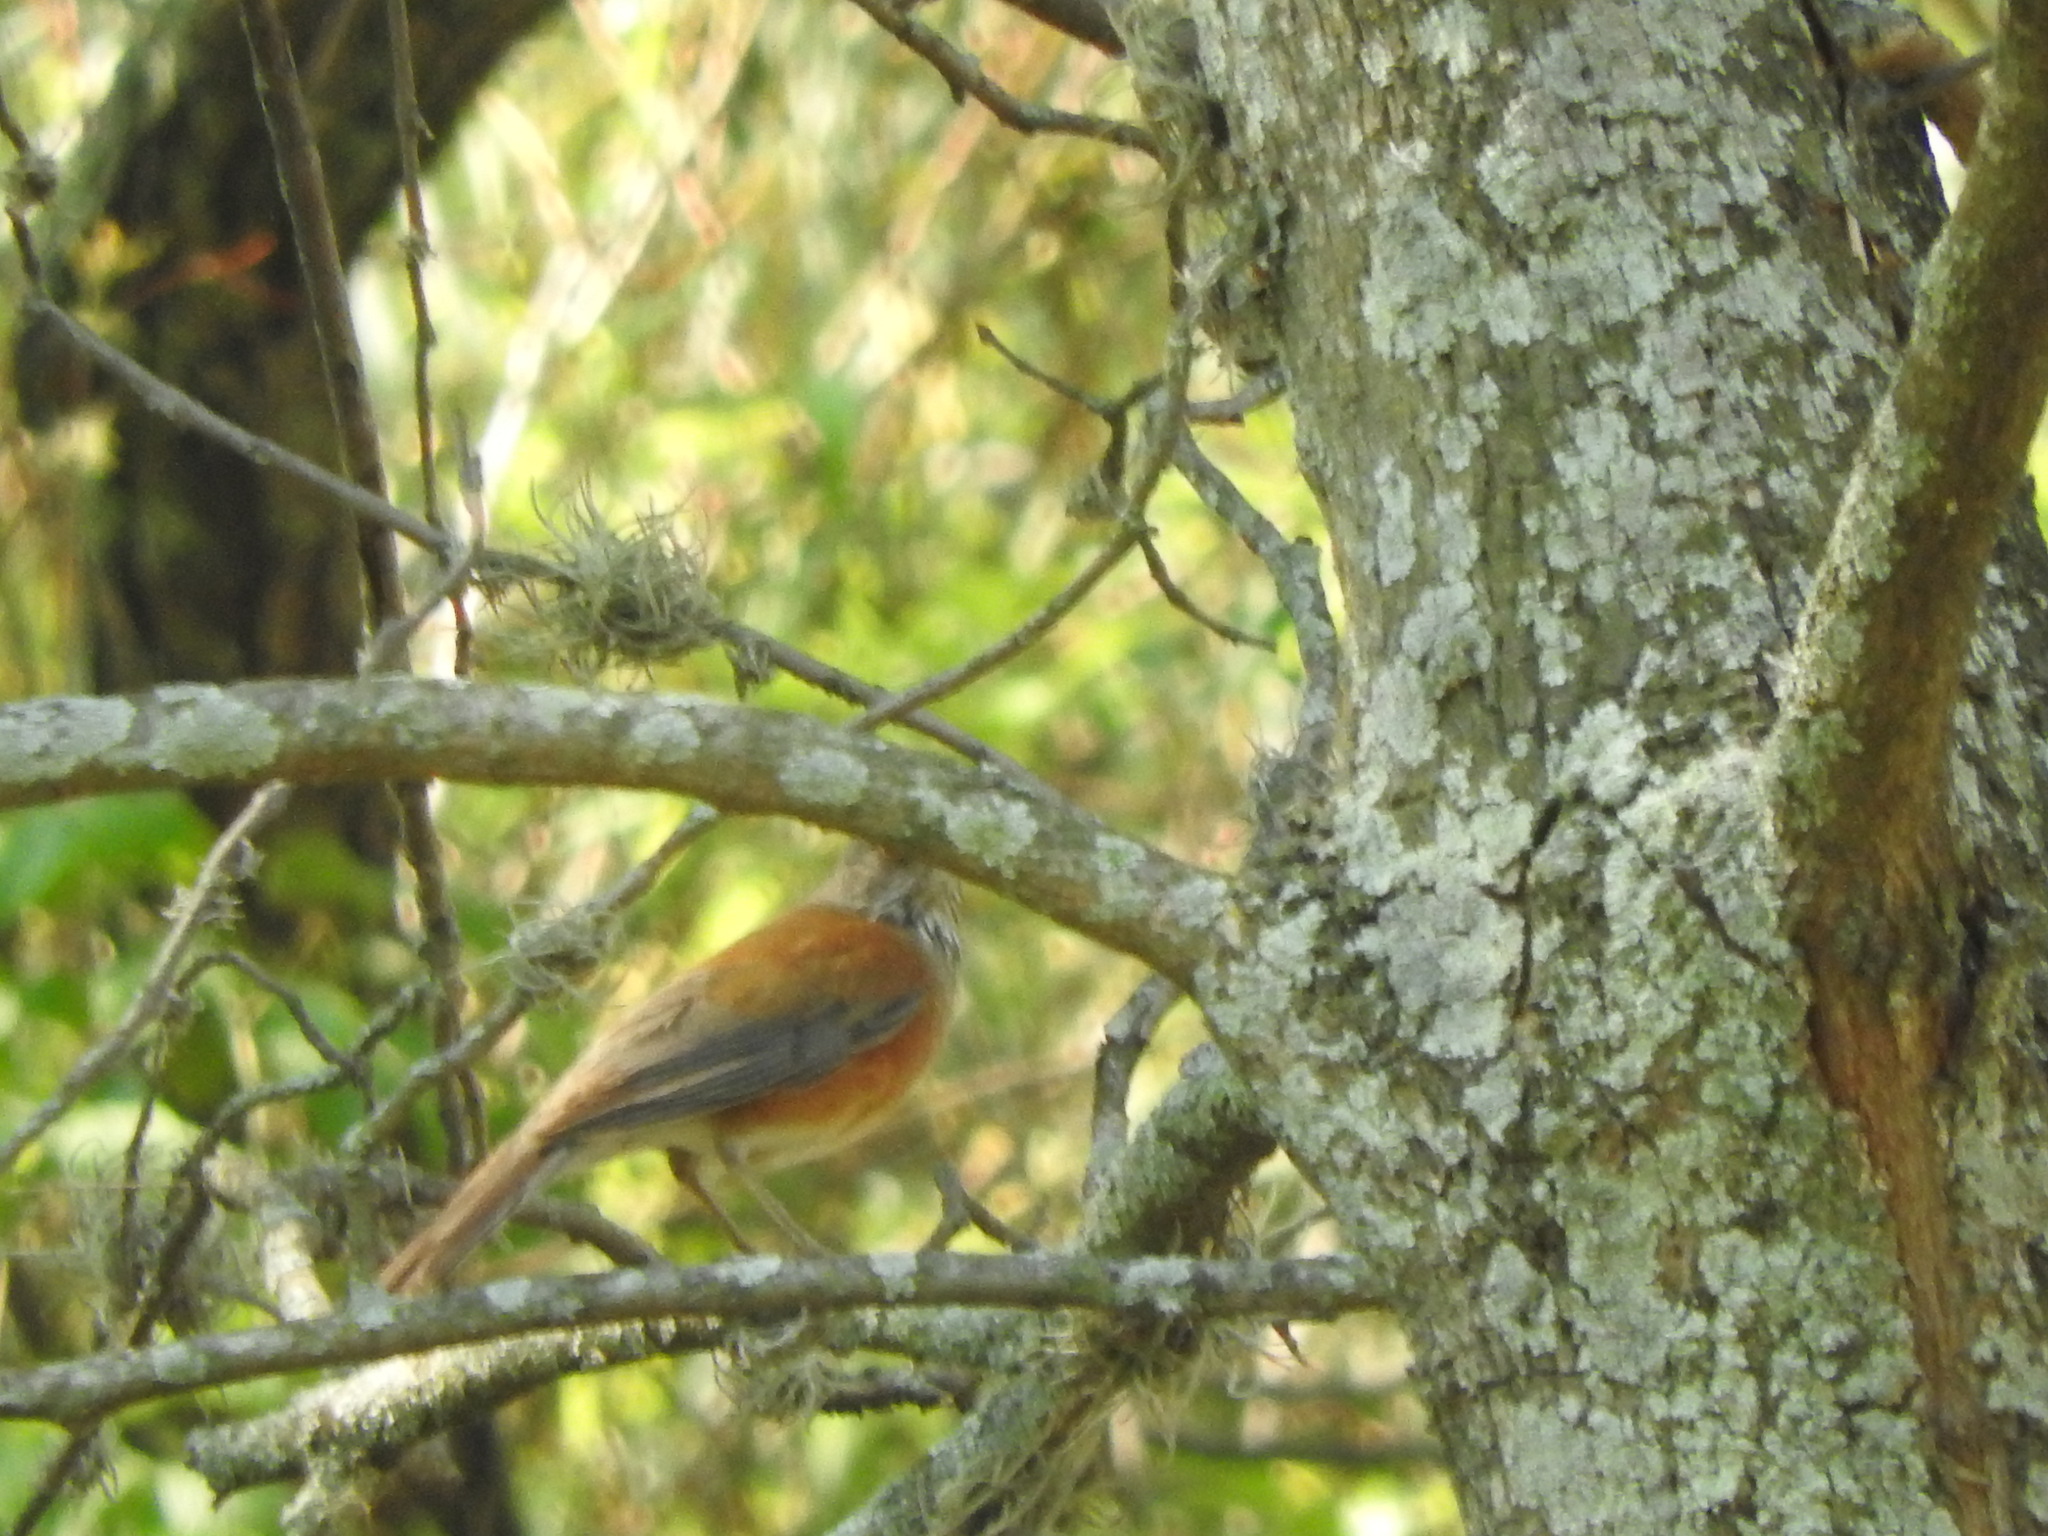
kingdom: Animalia
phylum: Chordata
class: Aves
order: Passeriformes
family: Turdidae
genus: Turdus
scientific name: Turdus rufopalliatus
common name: Rufous-backed robin
